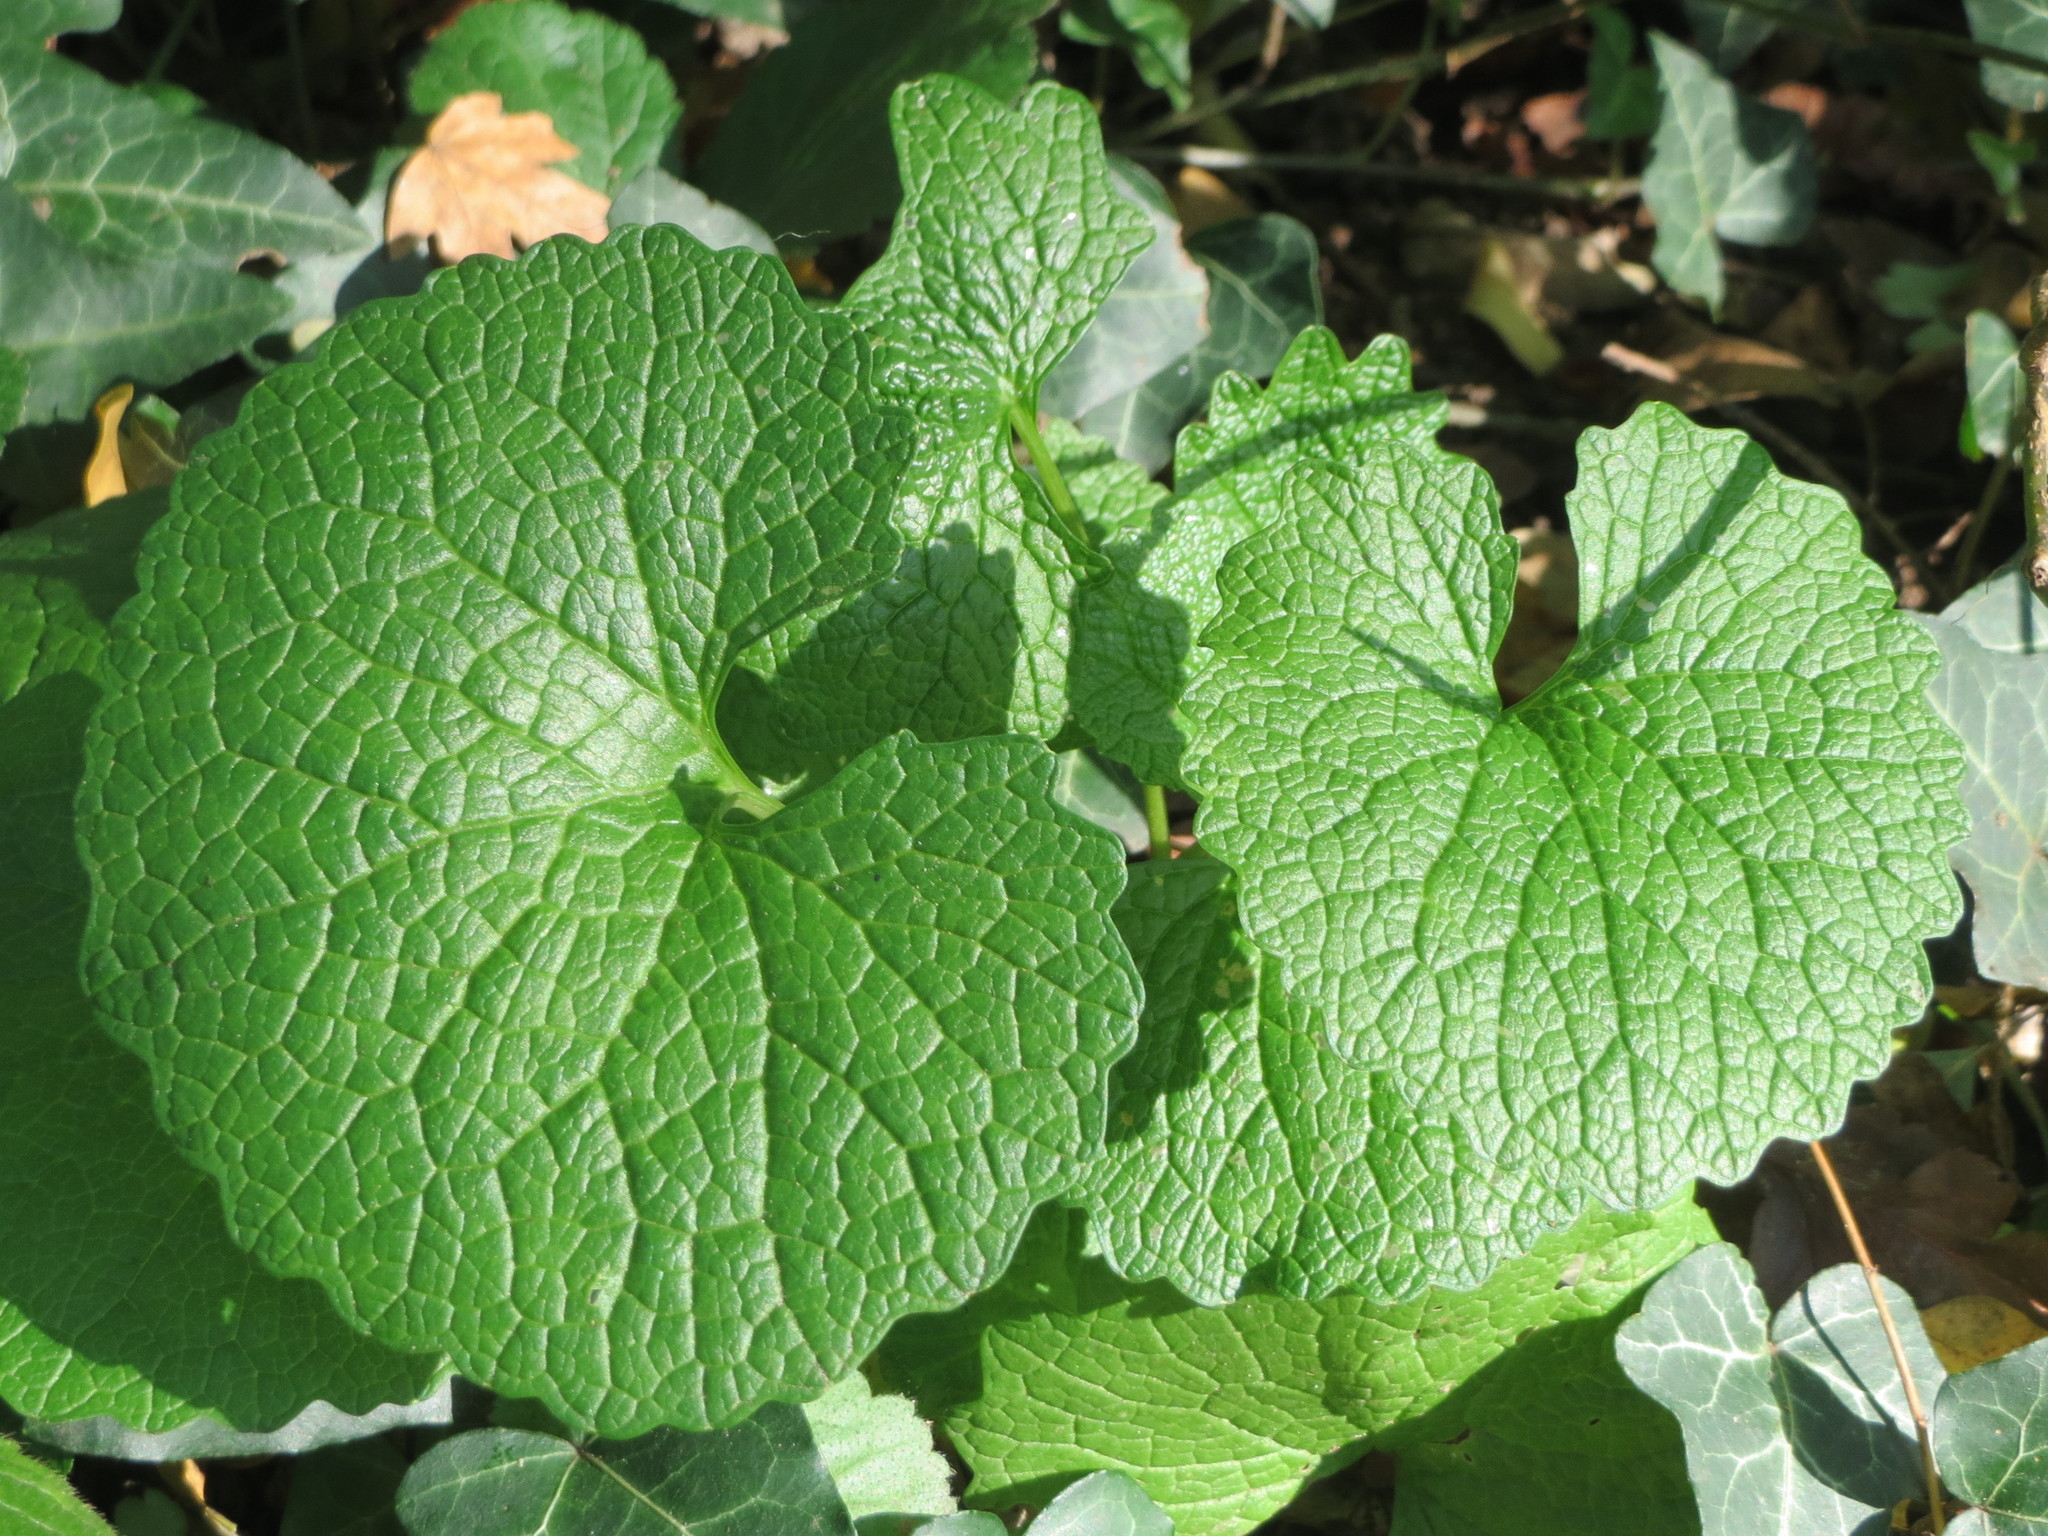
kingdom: Plantae
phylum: Tracheophyta
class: Magnoliopsida
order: Brassicales
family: Brassicaceae
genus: Alliaria
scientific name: Alliaria petiolata
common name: Garlic mustard
